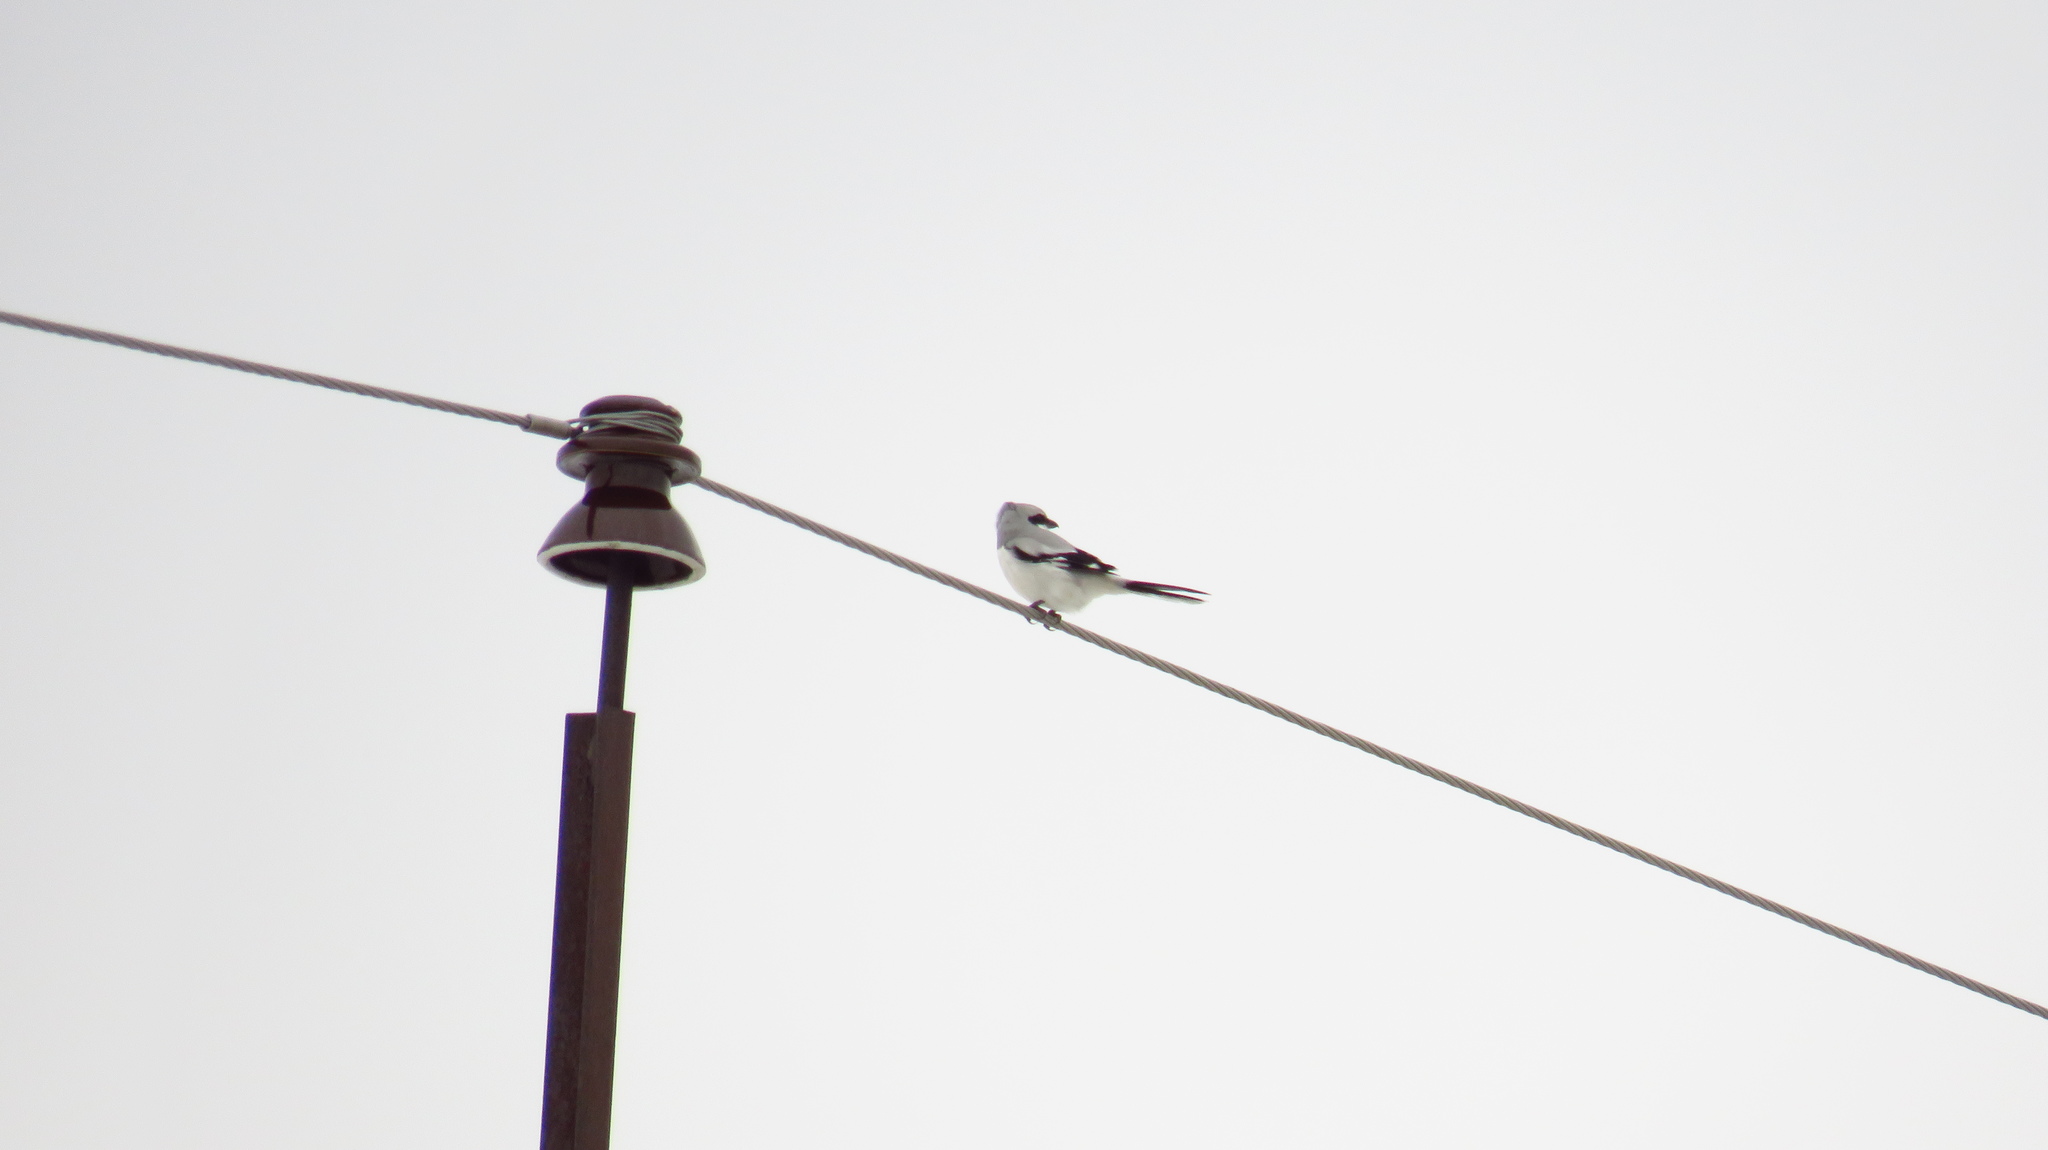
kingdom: Animalia
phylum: Chordata
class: Aves
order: Passeriformes
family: Laniidae
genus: Lanius
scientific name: Lanius excubitor
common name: Great grey shrike
